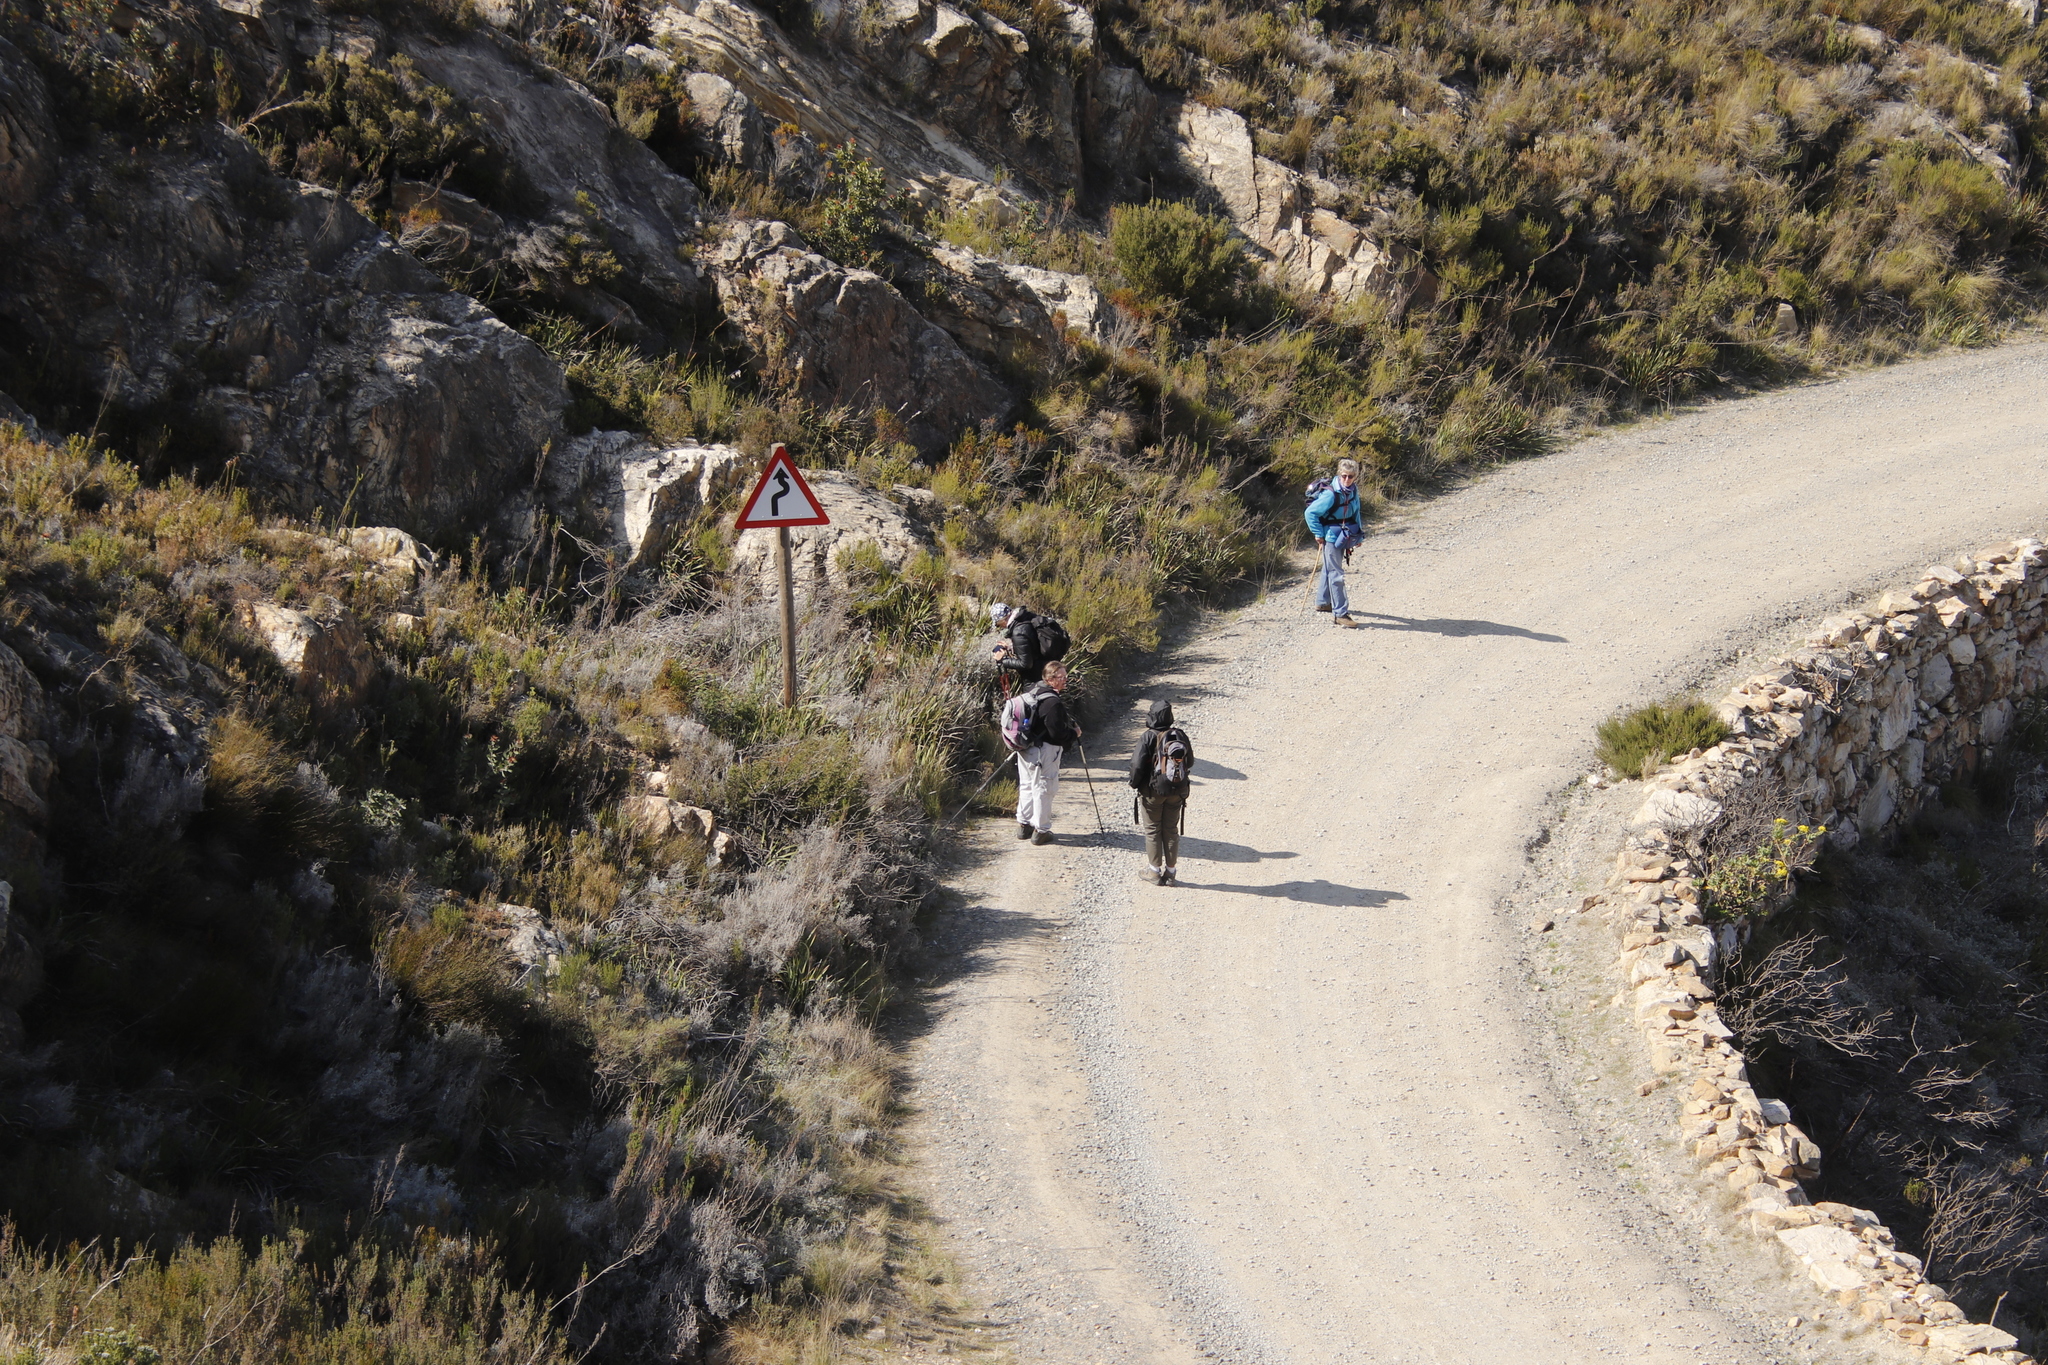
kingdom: Plantae
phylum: Tracheophyta
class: Magnoliopsida
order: Asterales
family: Asteraceae
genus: Seriphium
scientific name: Seriphium plumosum
